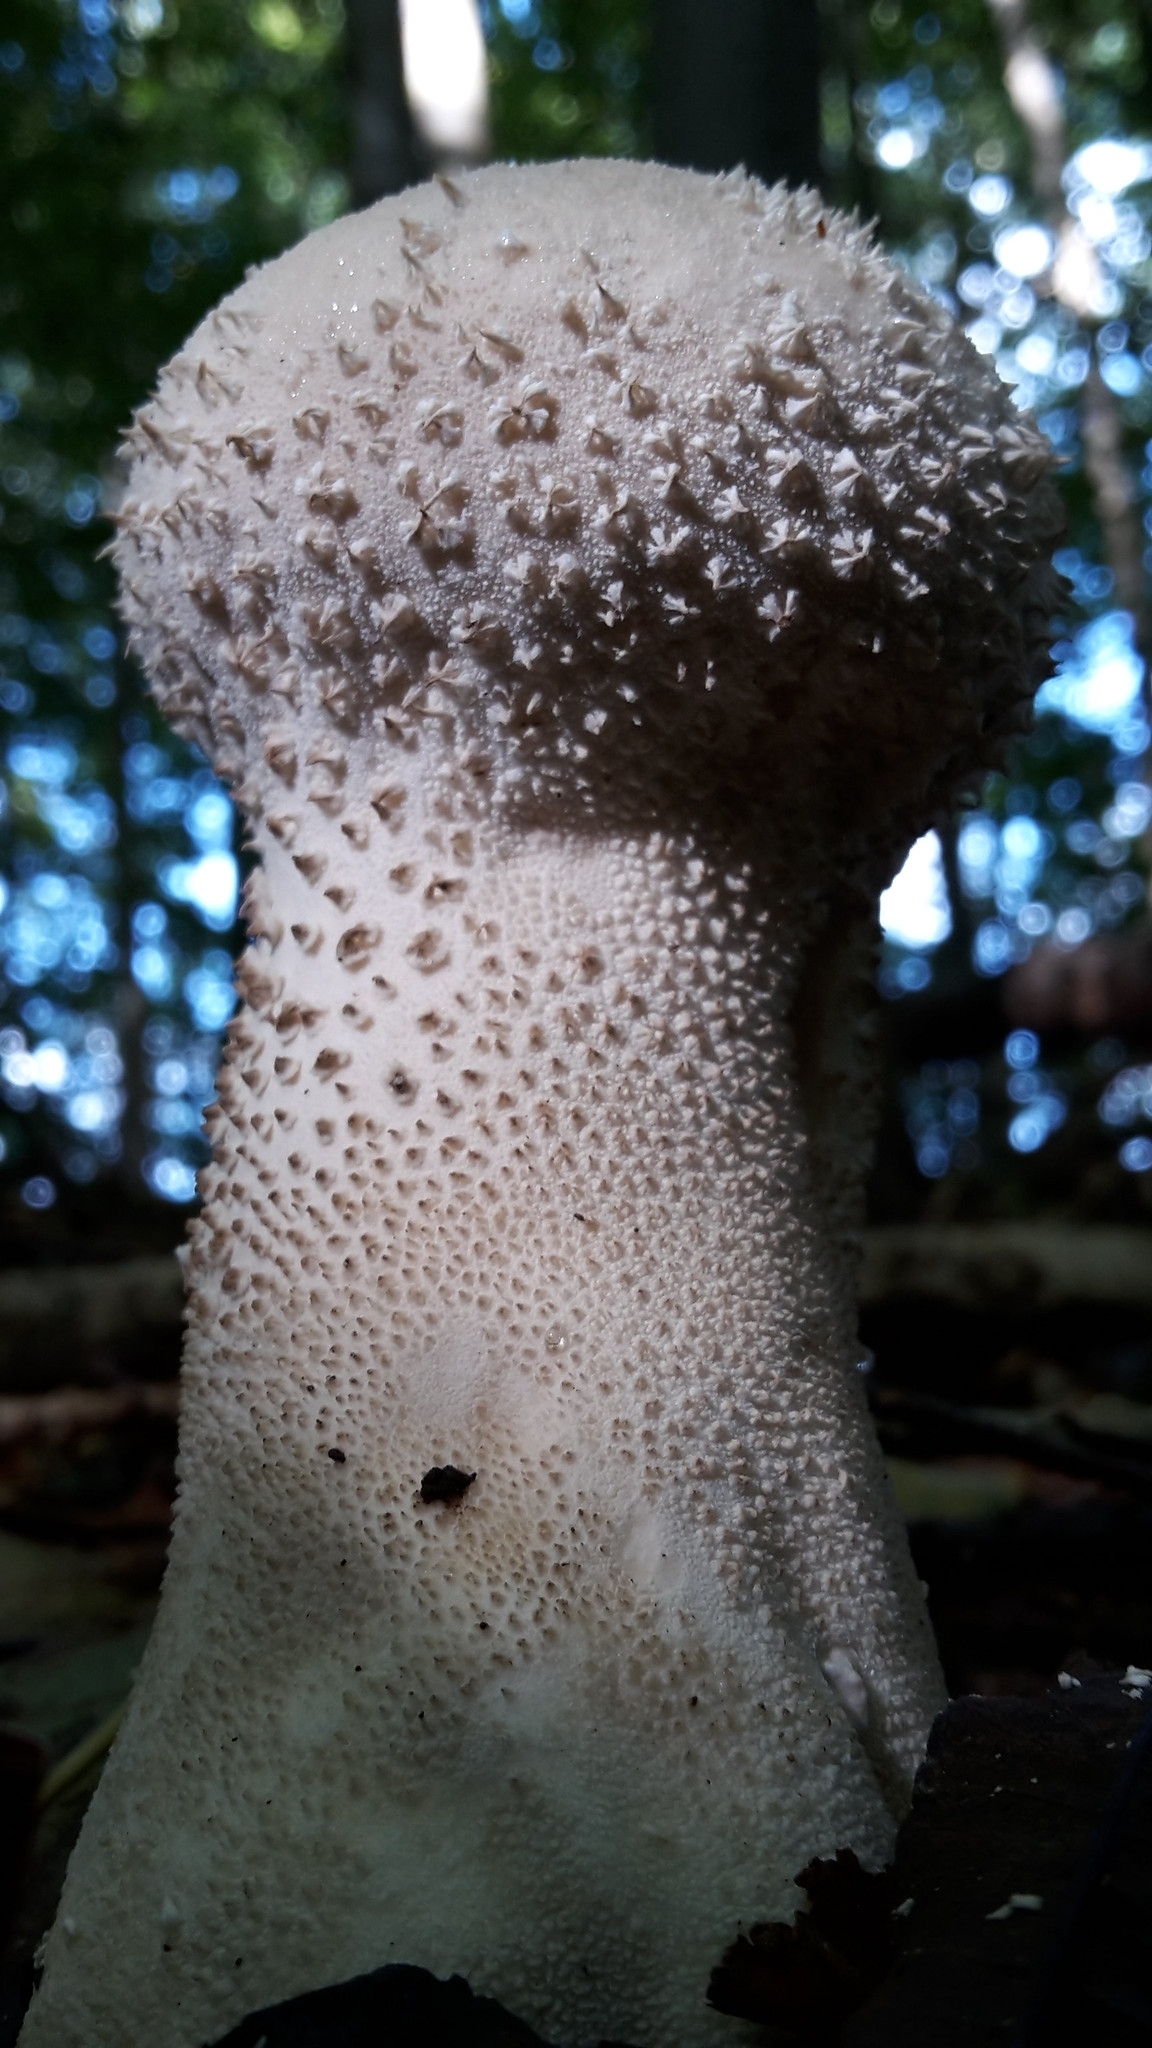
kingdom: Fungi
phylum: Basidiomycota
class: Agaricomycetes
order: Agaricales
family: Lycoperdaceae
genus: Lycoperdon
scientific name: Lycoperdon perlatum
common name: Common puffball
